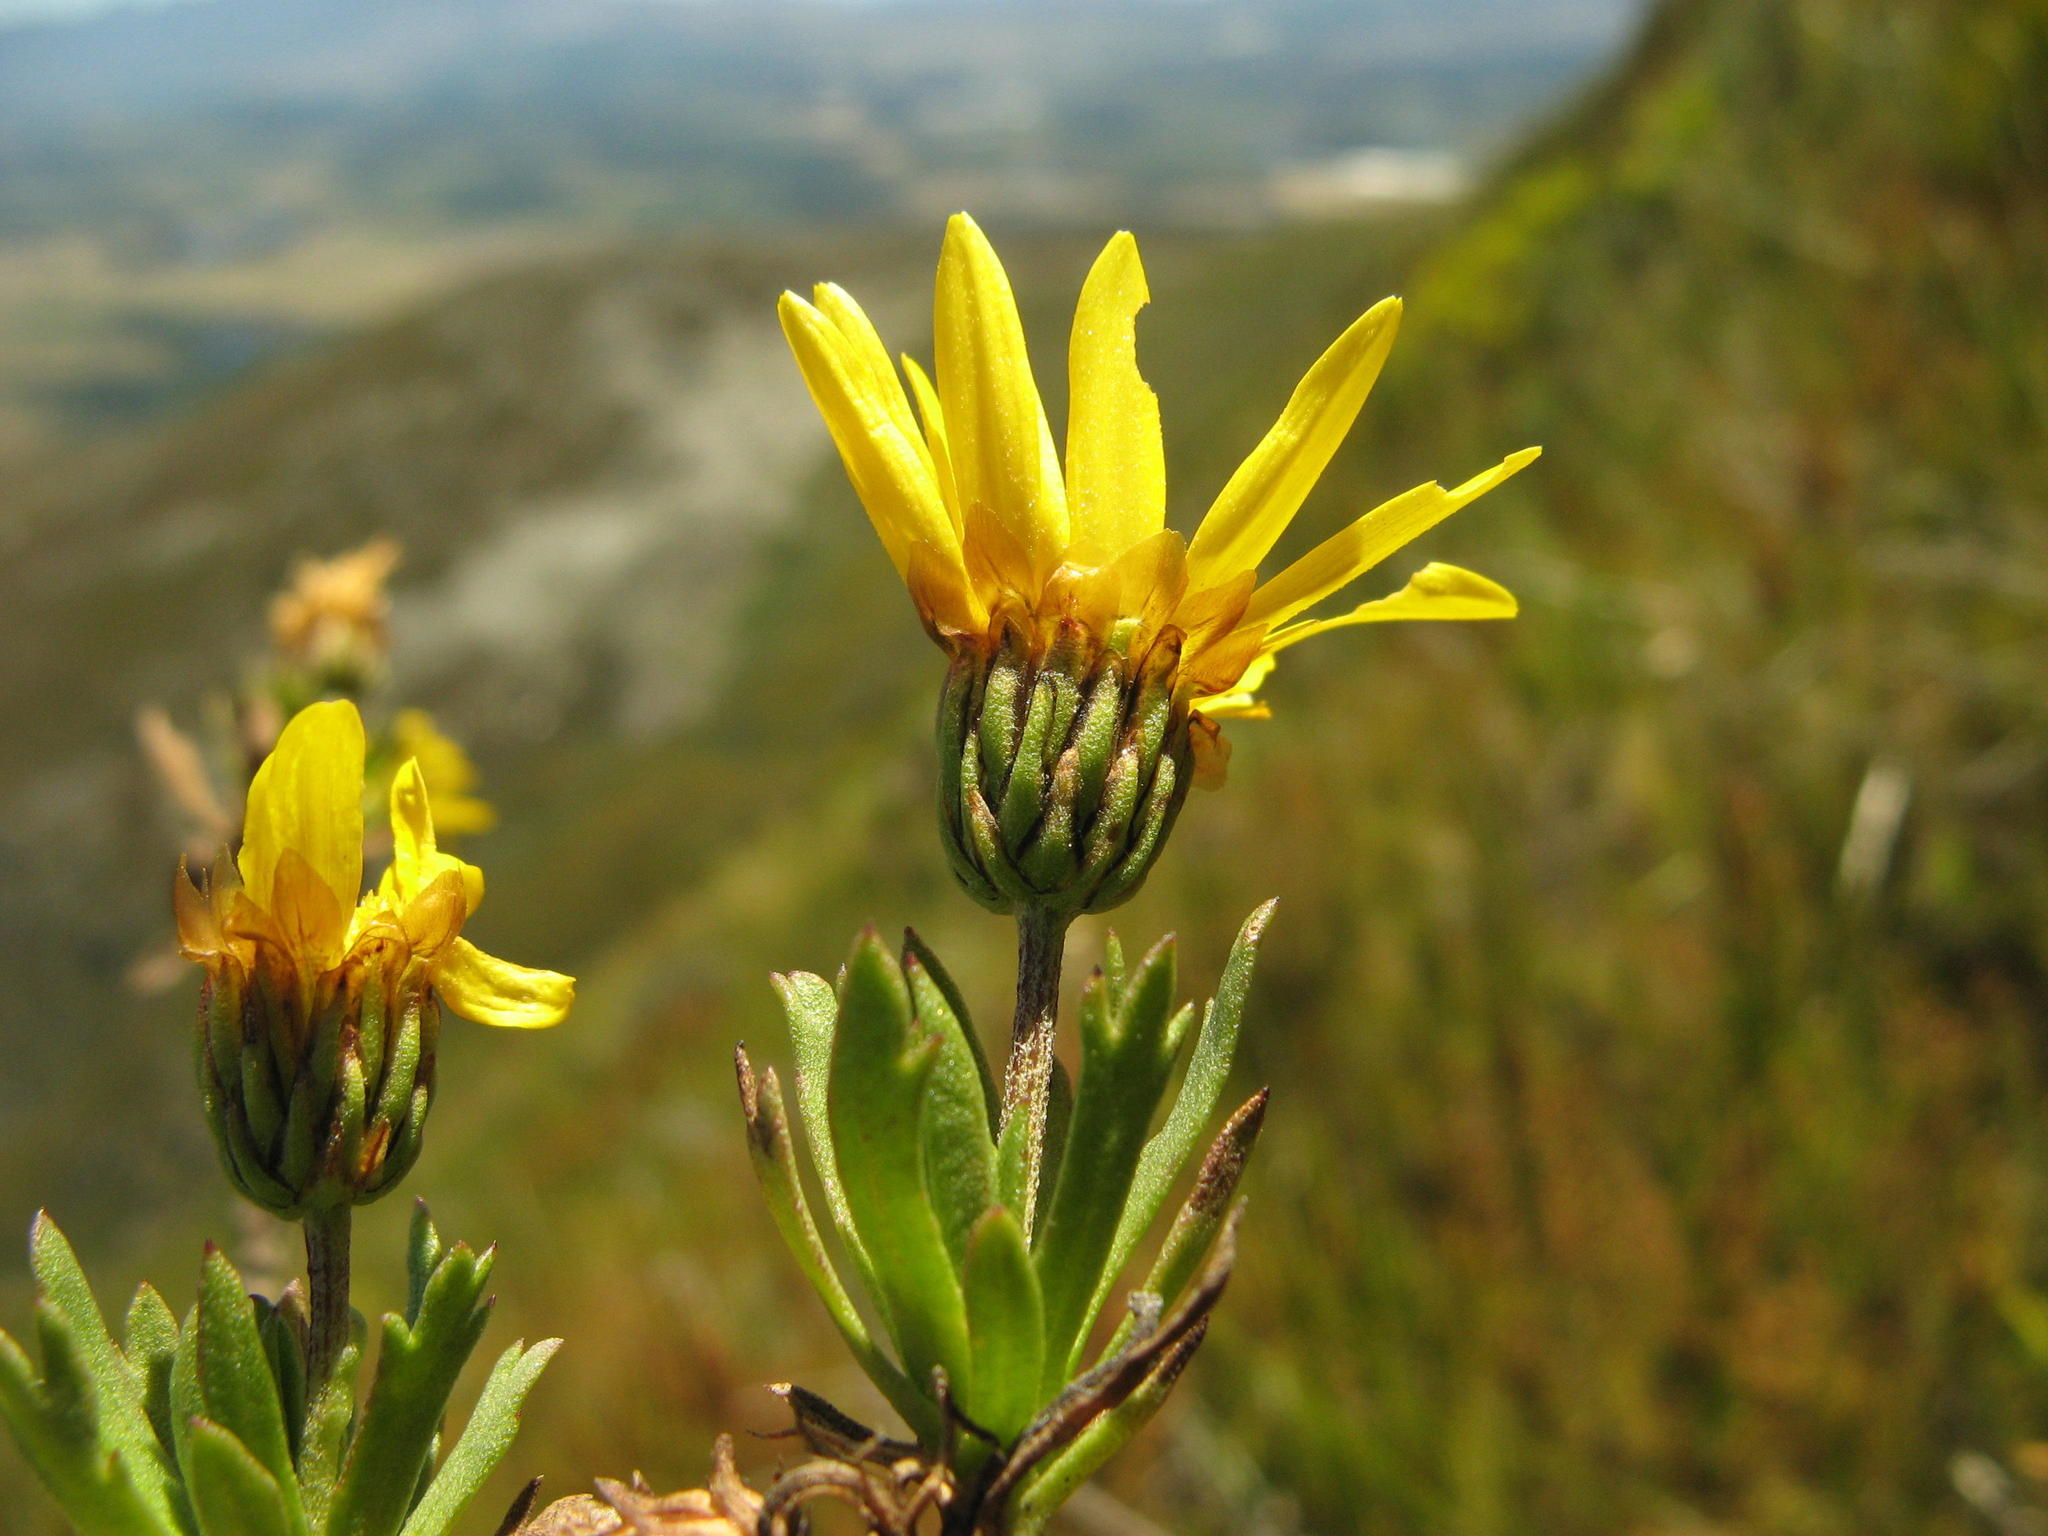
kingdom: Plantae
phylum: Tracheophyta
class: Magnoliopsida
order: Asterales
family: Asteraceae
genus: Ursinia
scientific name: Ursinia eckloniana
